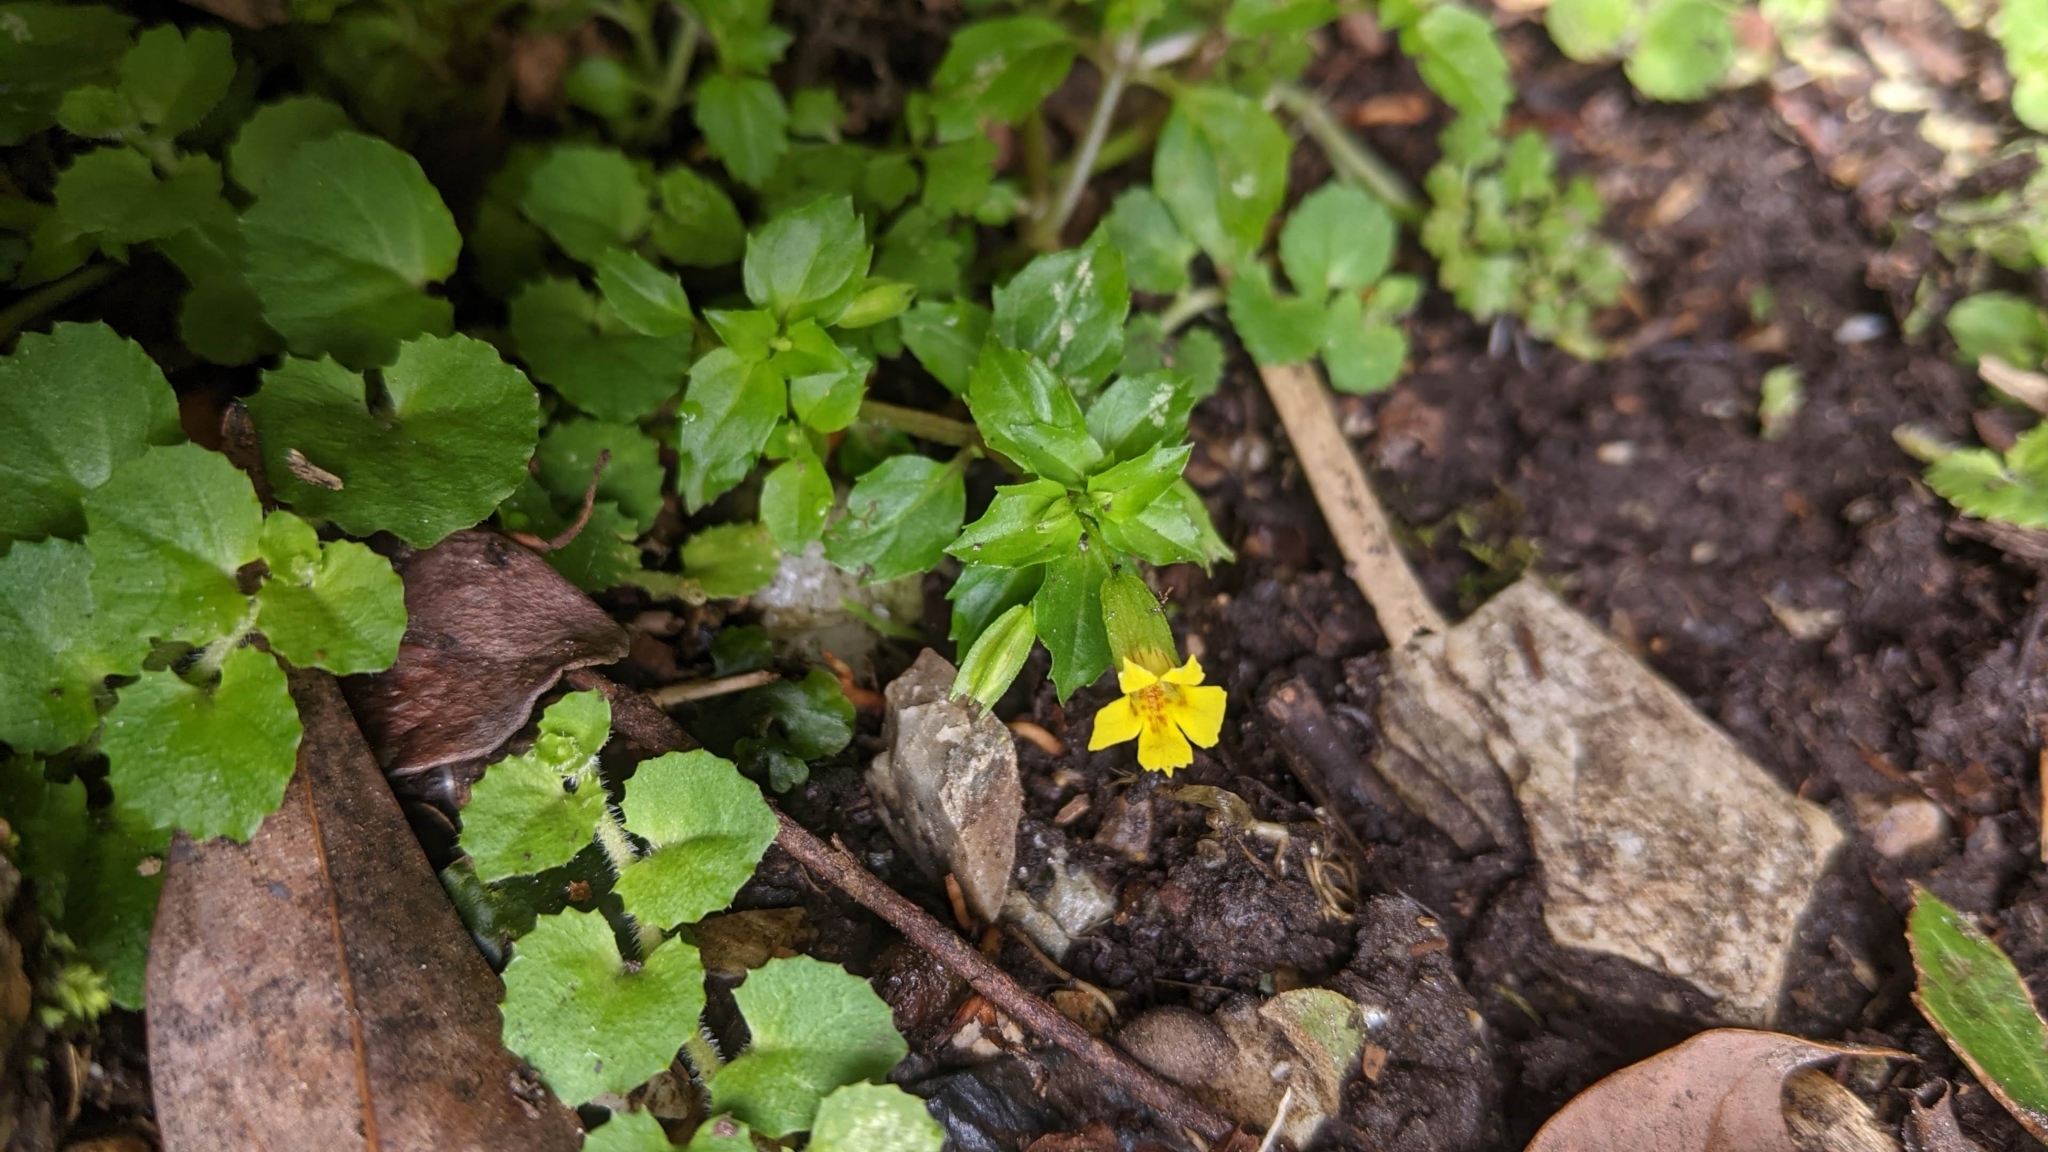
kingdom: Plantae
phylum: Tracheophyta
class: Magnoliopsida
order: Lamiales
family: Phrymaceae
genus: Erythranthe
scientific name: Erythranthe nepalensis
